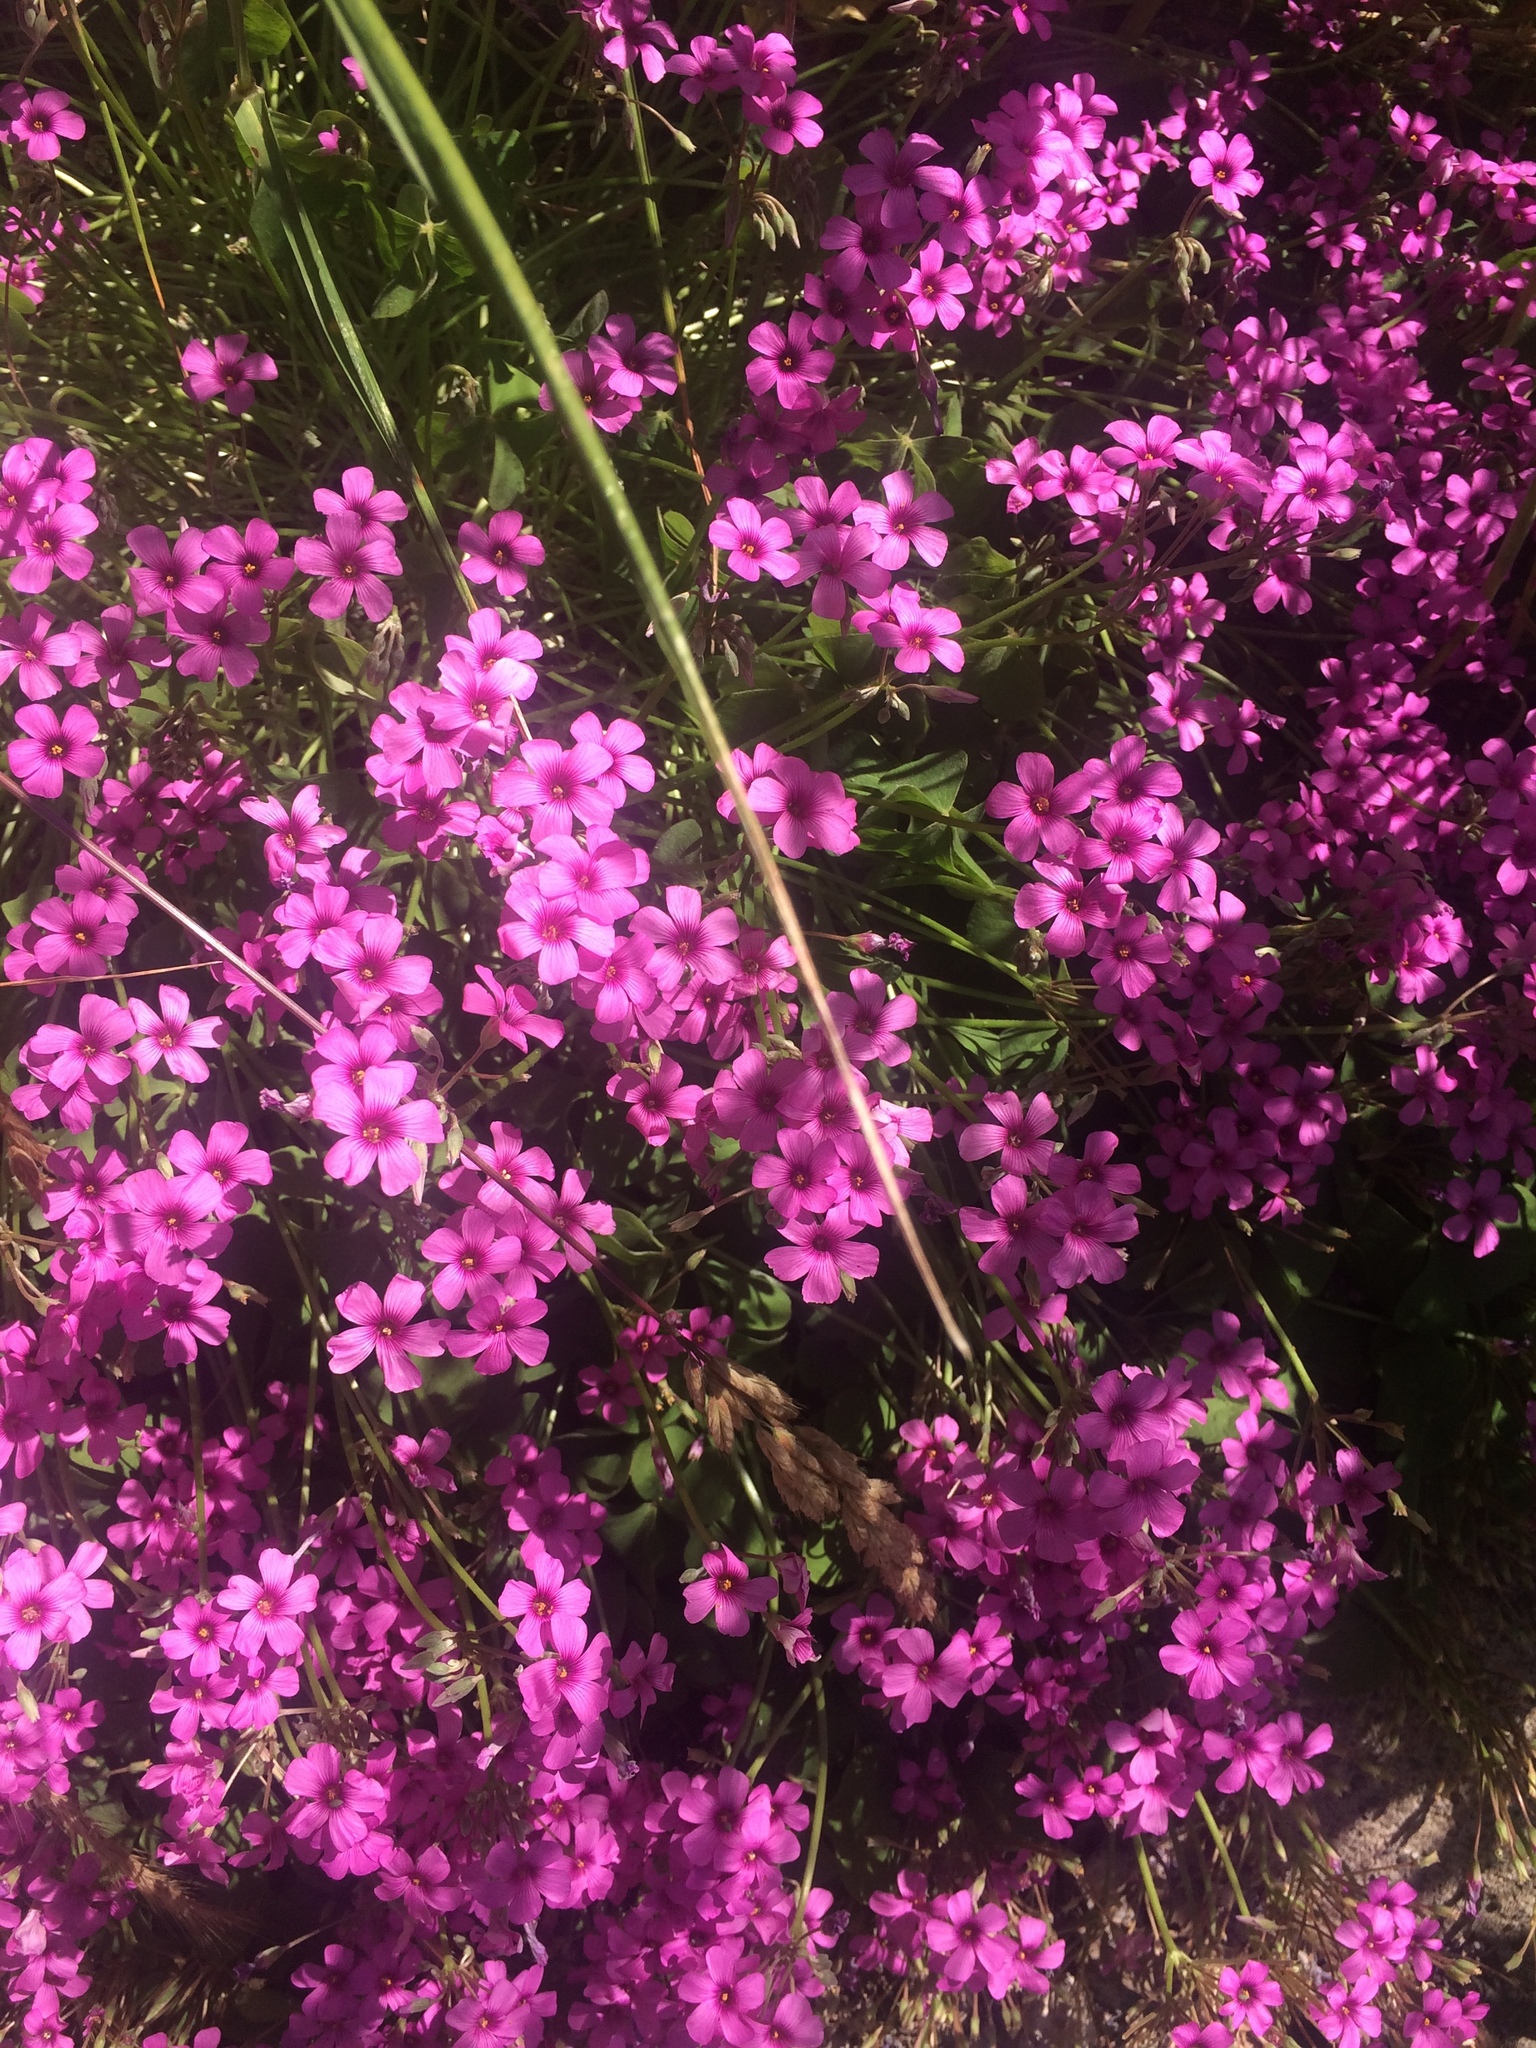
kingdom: Plantae
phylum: Tracheophyta
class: Magnoliopsida
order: Oxalidales
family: Oxalidaceae
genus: Oxalis
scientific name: Oxalis articulata
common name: Pink-sorrel
